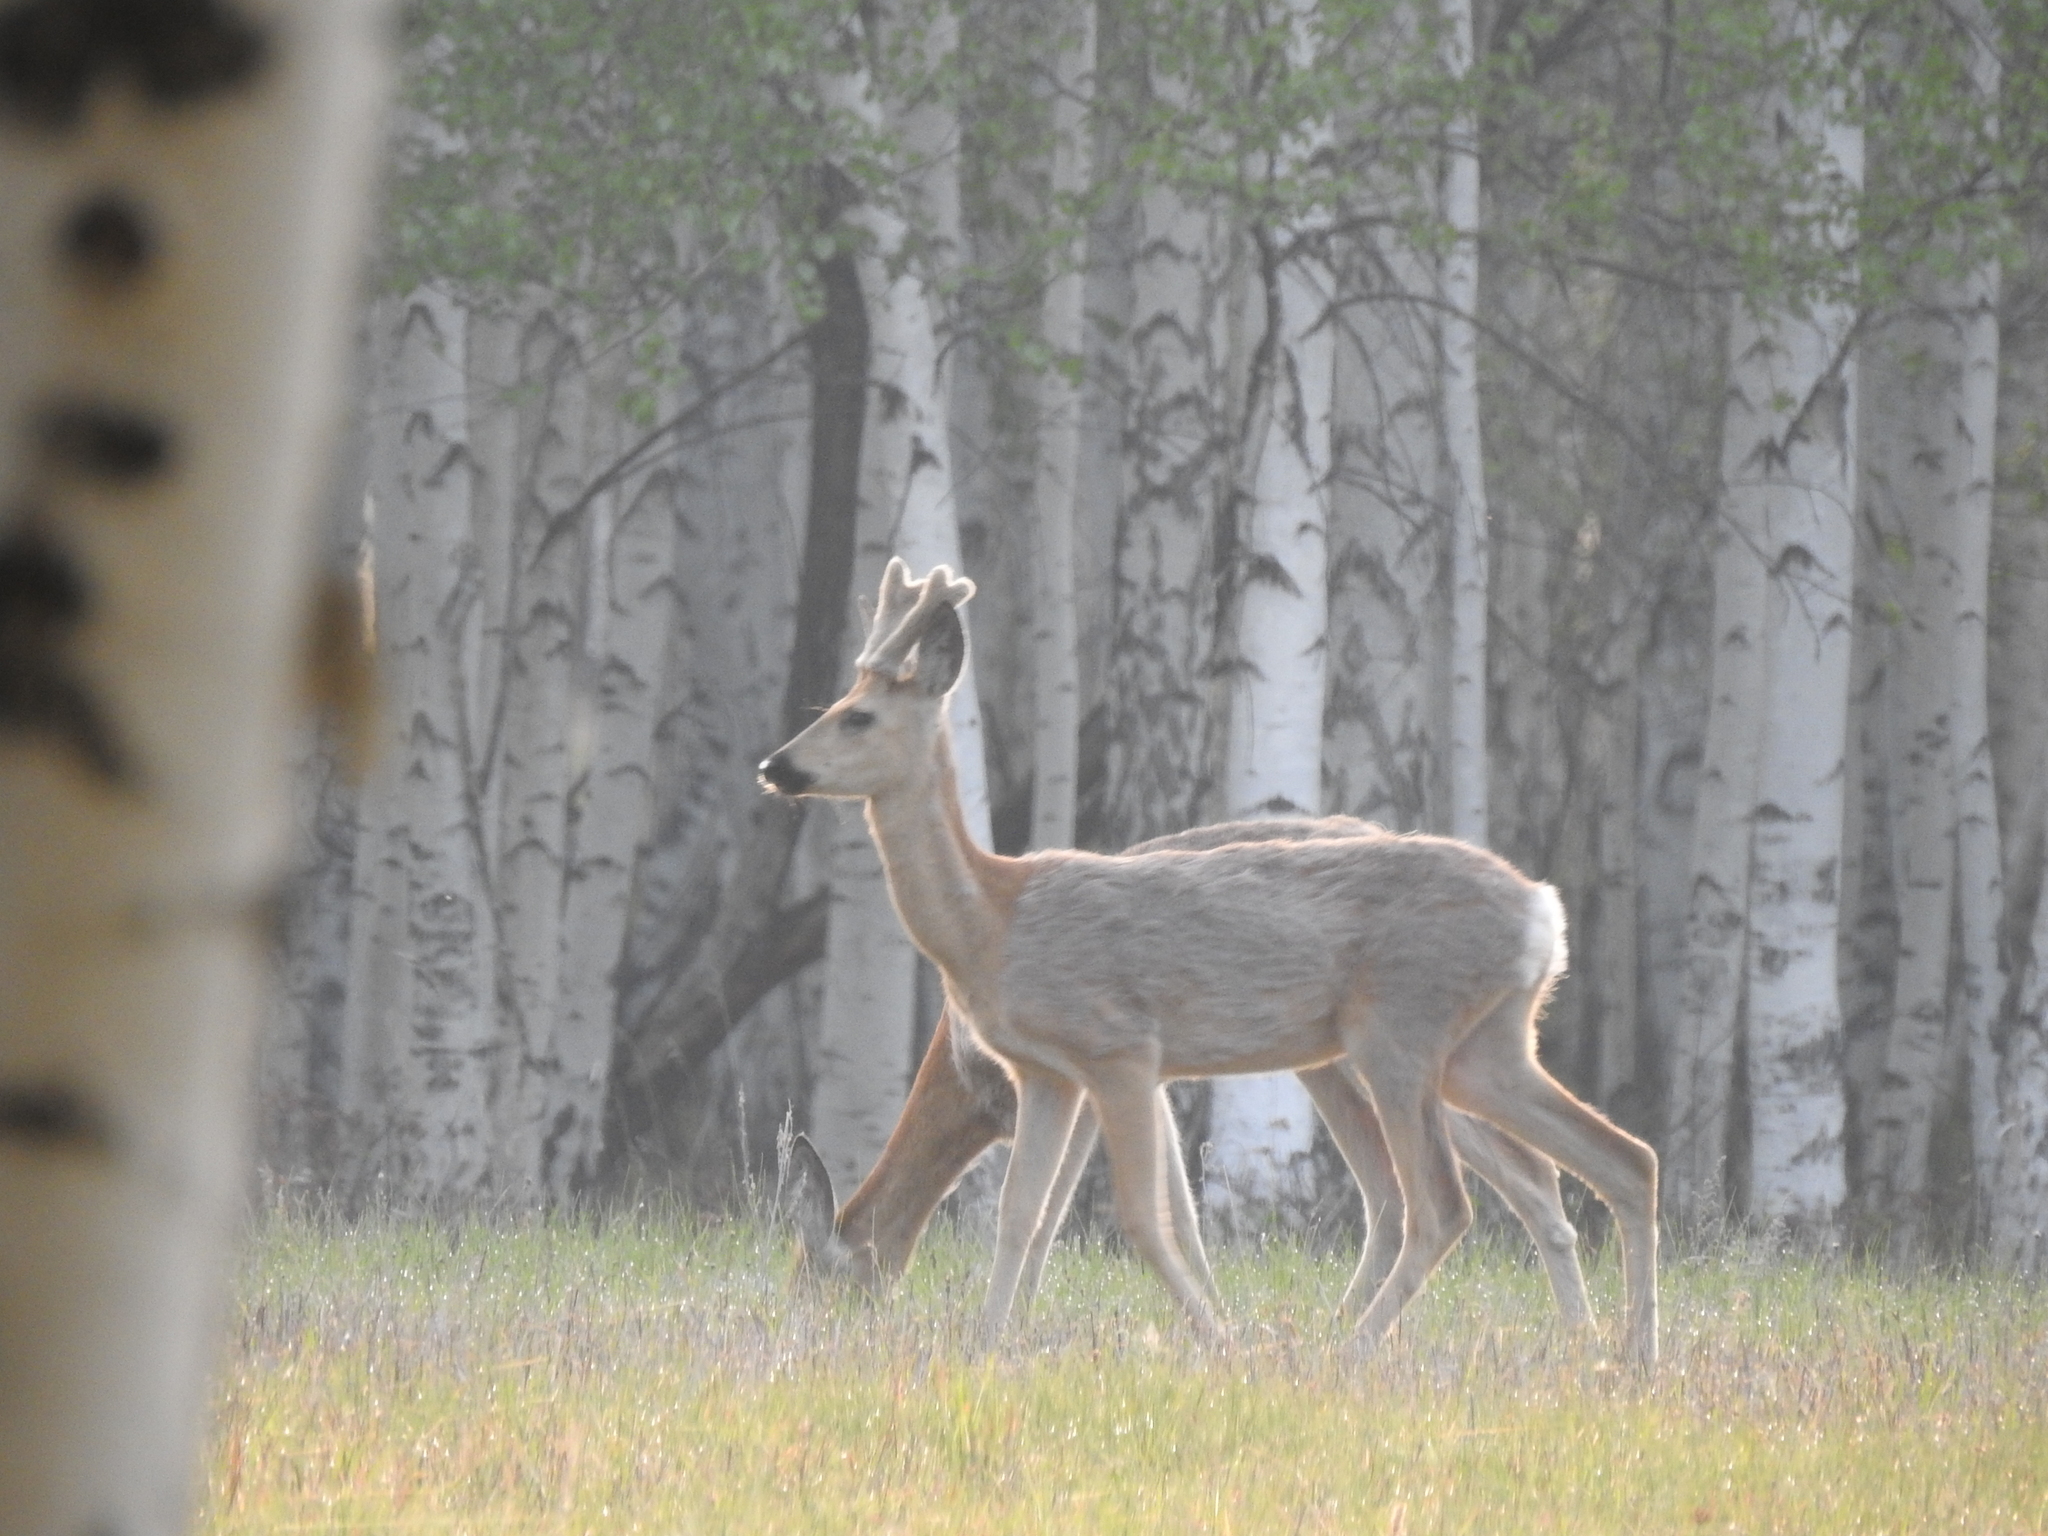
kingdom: Animalia
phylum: Chordata
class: Mammalia
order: Artiodactyla
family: Cervidae
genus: Capreolus
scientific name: Capreolus pygargus
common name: Siberian roe
